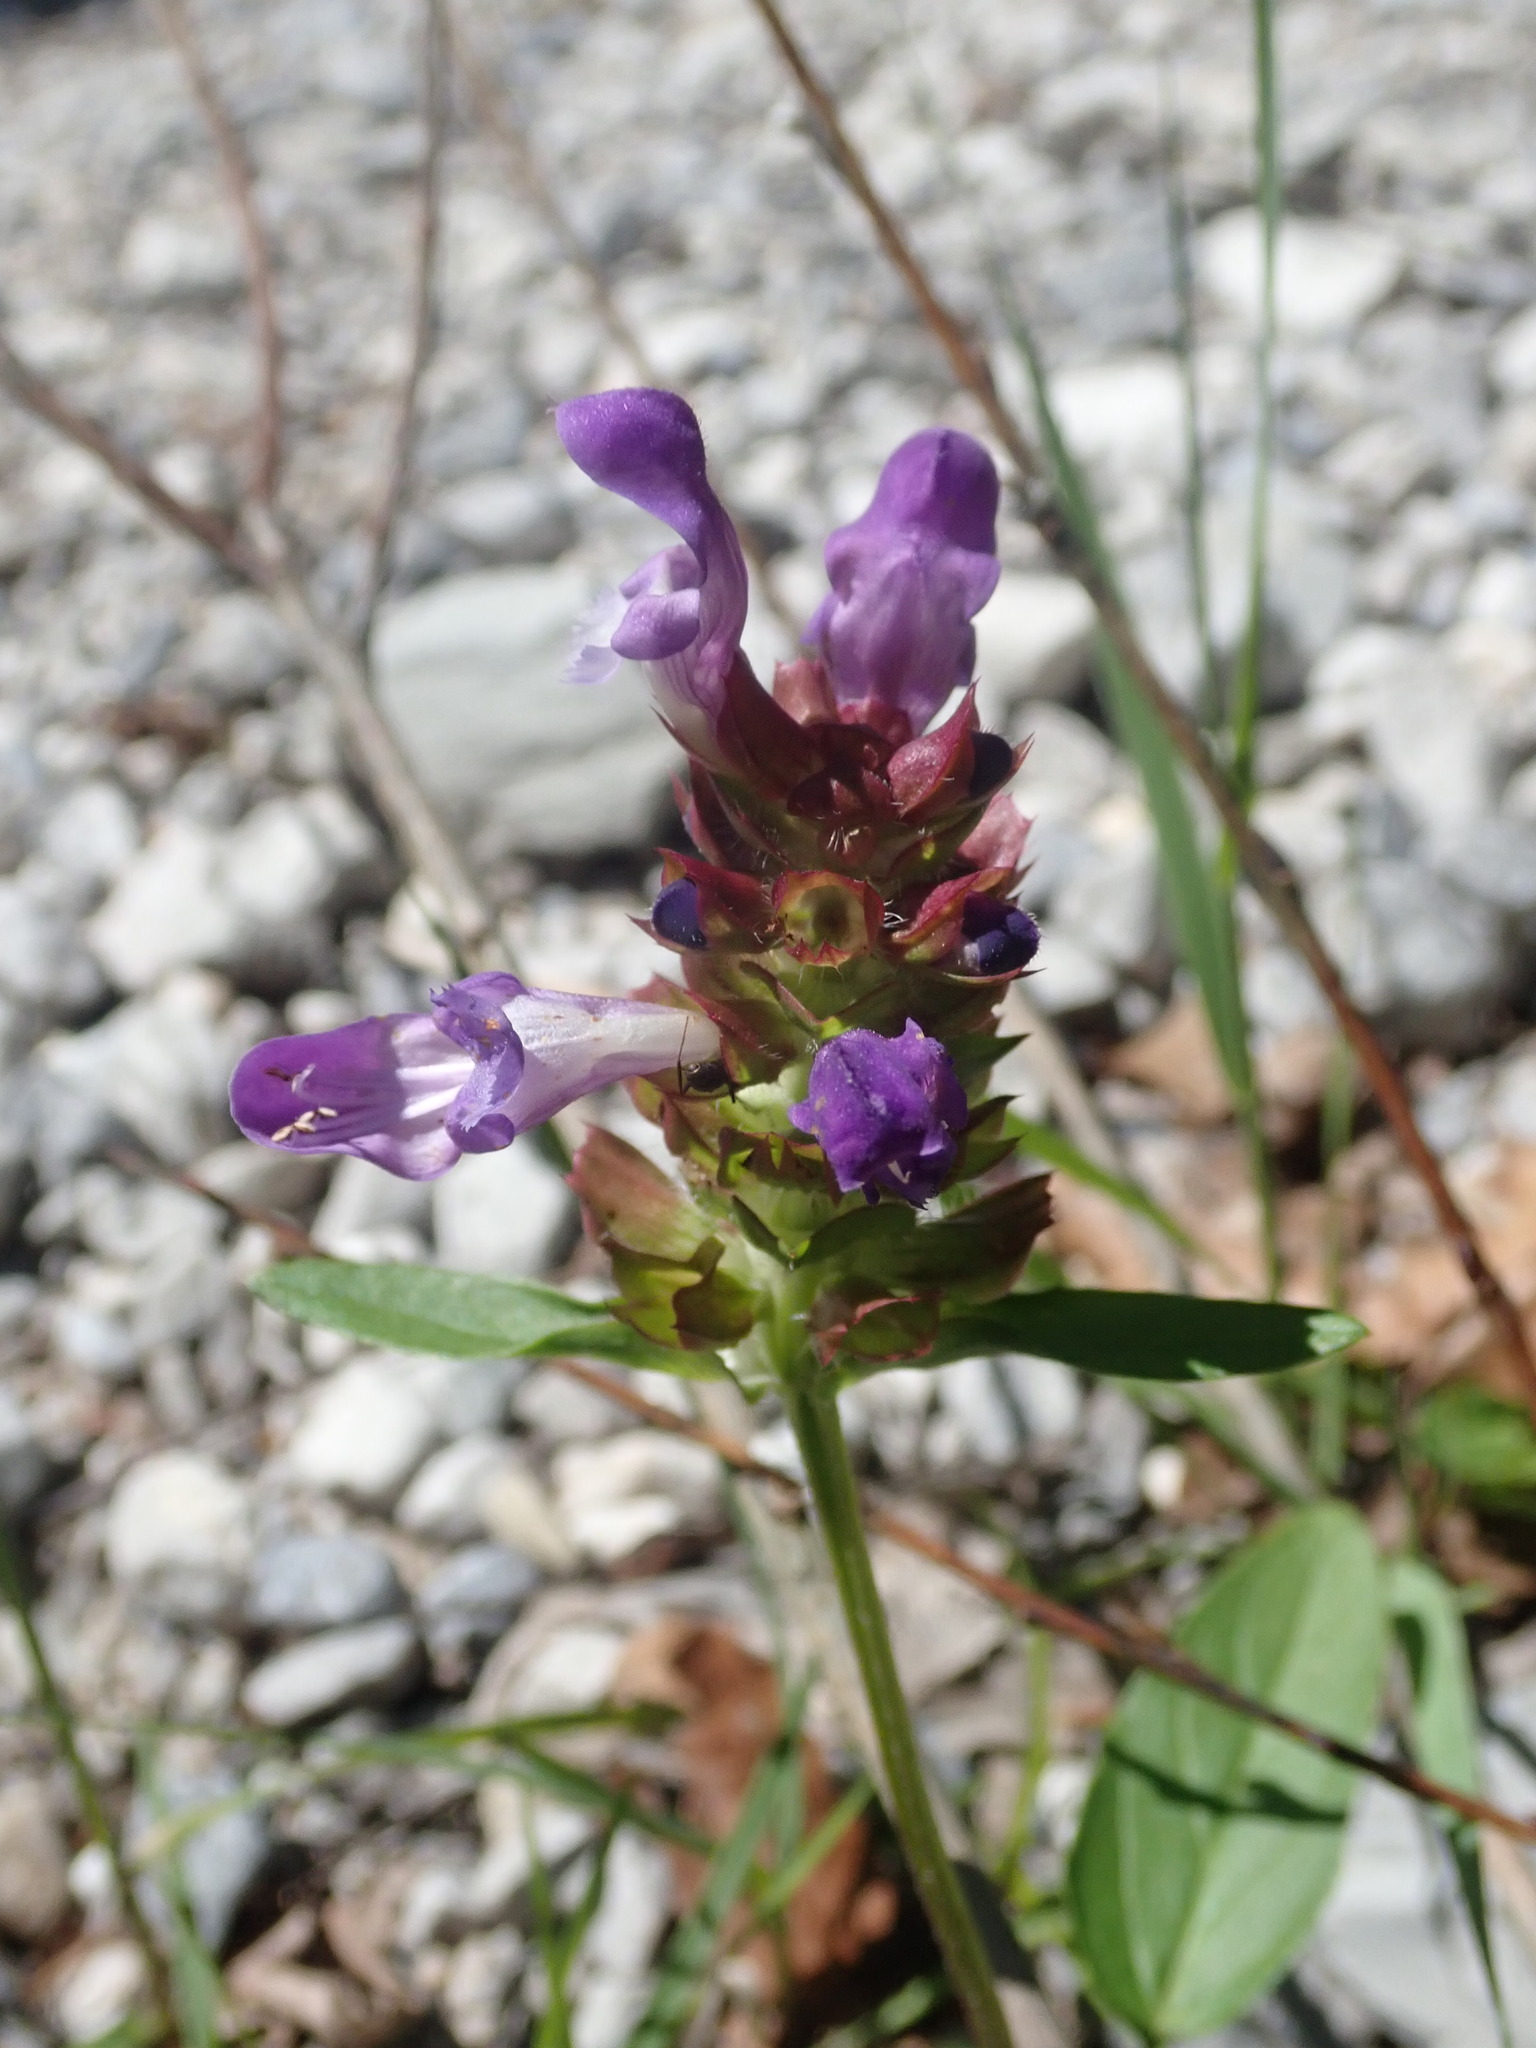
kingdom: Plantae
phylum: Tracheophyta
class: Magnoliopsida
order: Lamiales
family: Lamiaceae
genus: Prunella
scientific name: Prunella vulgaris
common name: Heal-all
